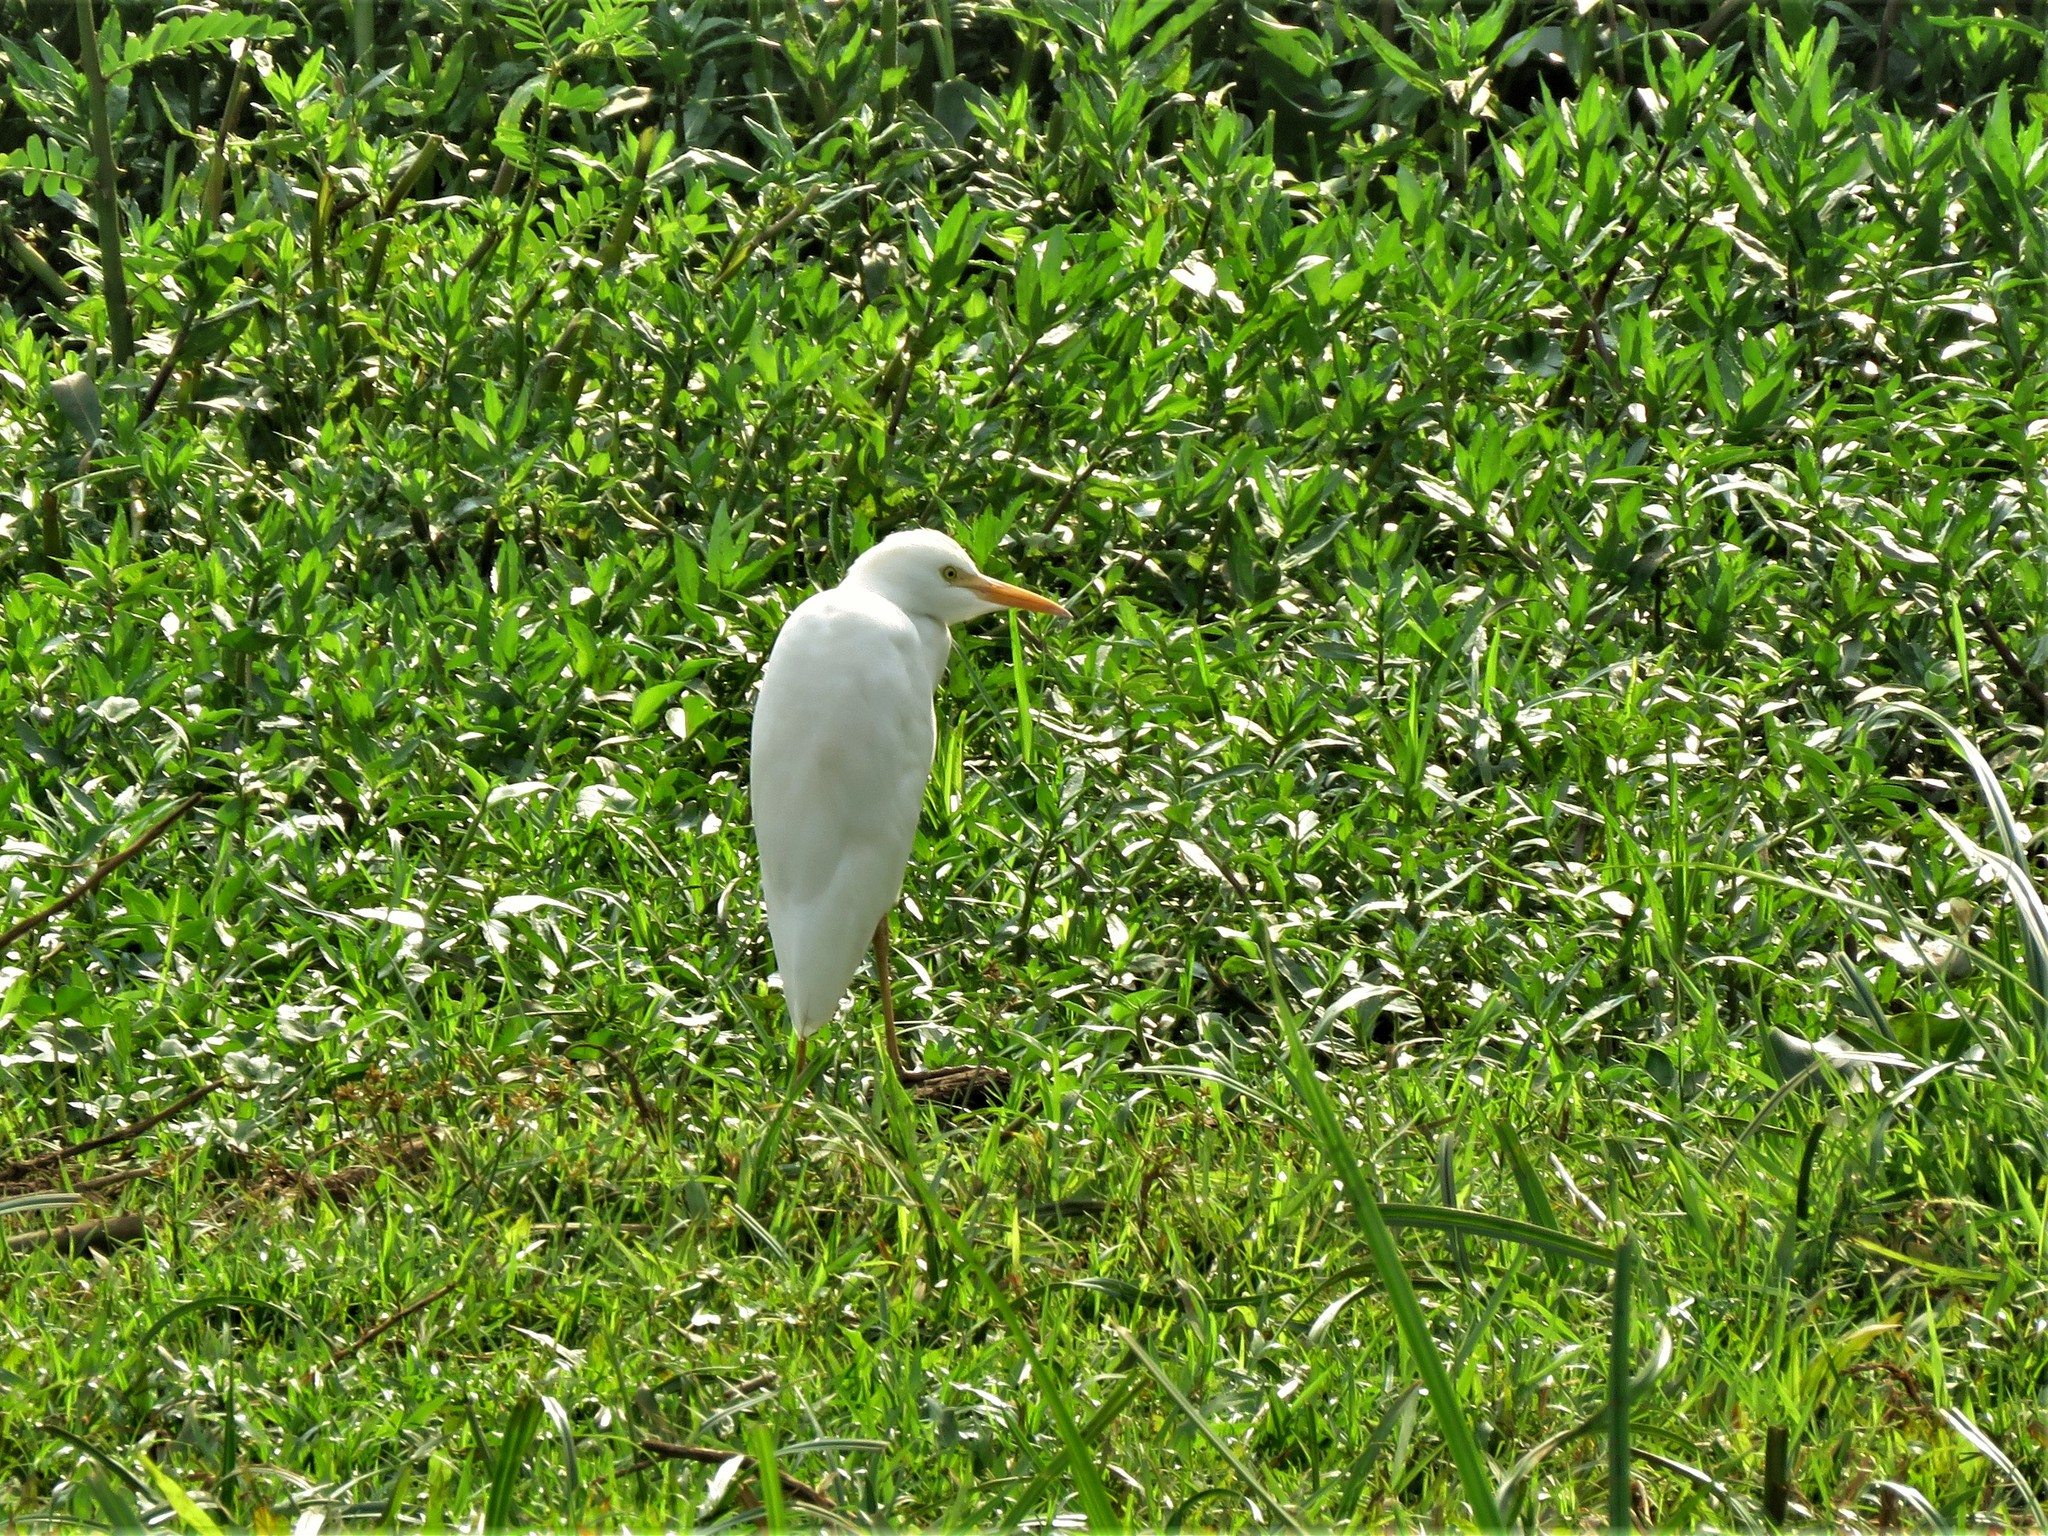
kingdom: Animalia
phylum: Chordata
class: Aves
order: Pelecaniformes
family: Ardeidae
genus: Bubulcus
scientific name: Bubulcus ibis
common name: Cattle egret
